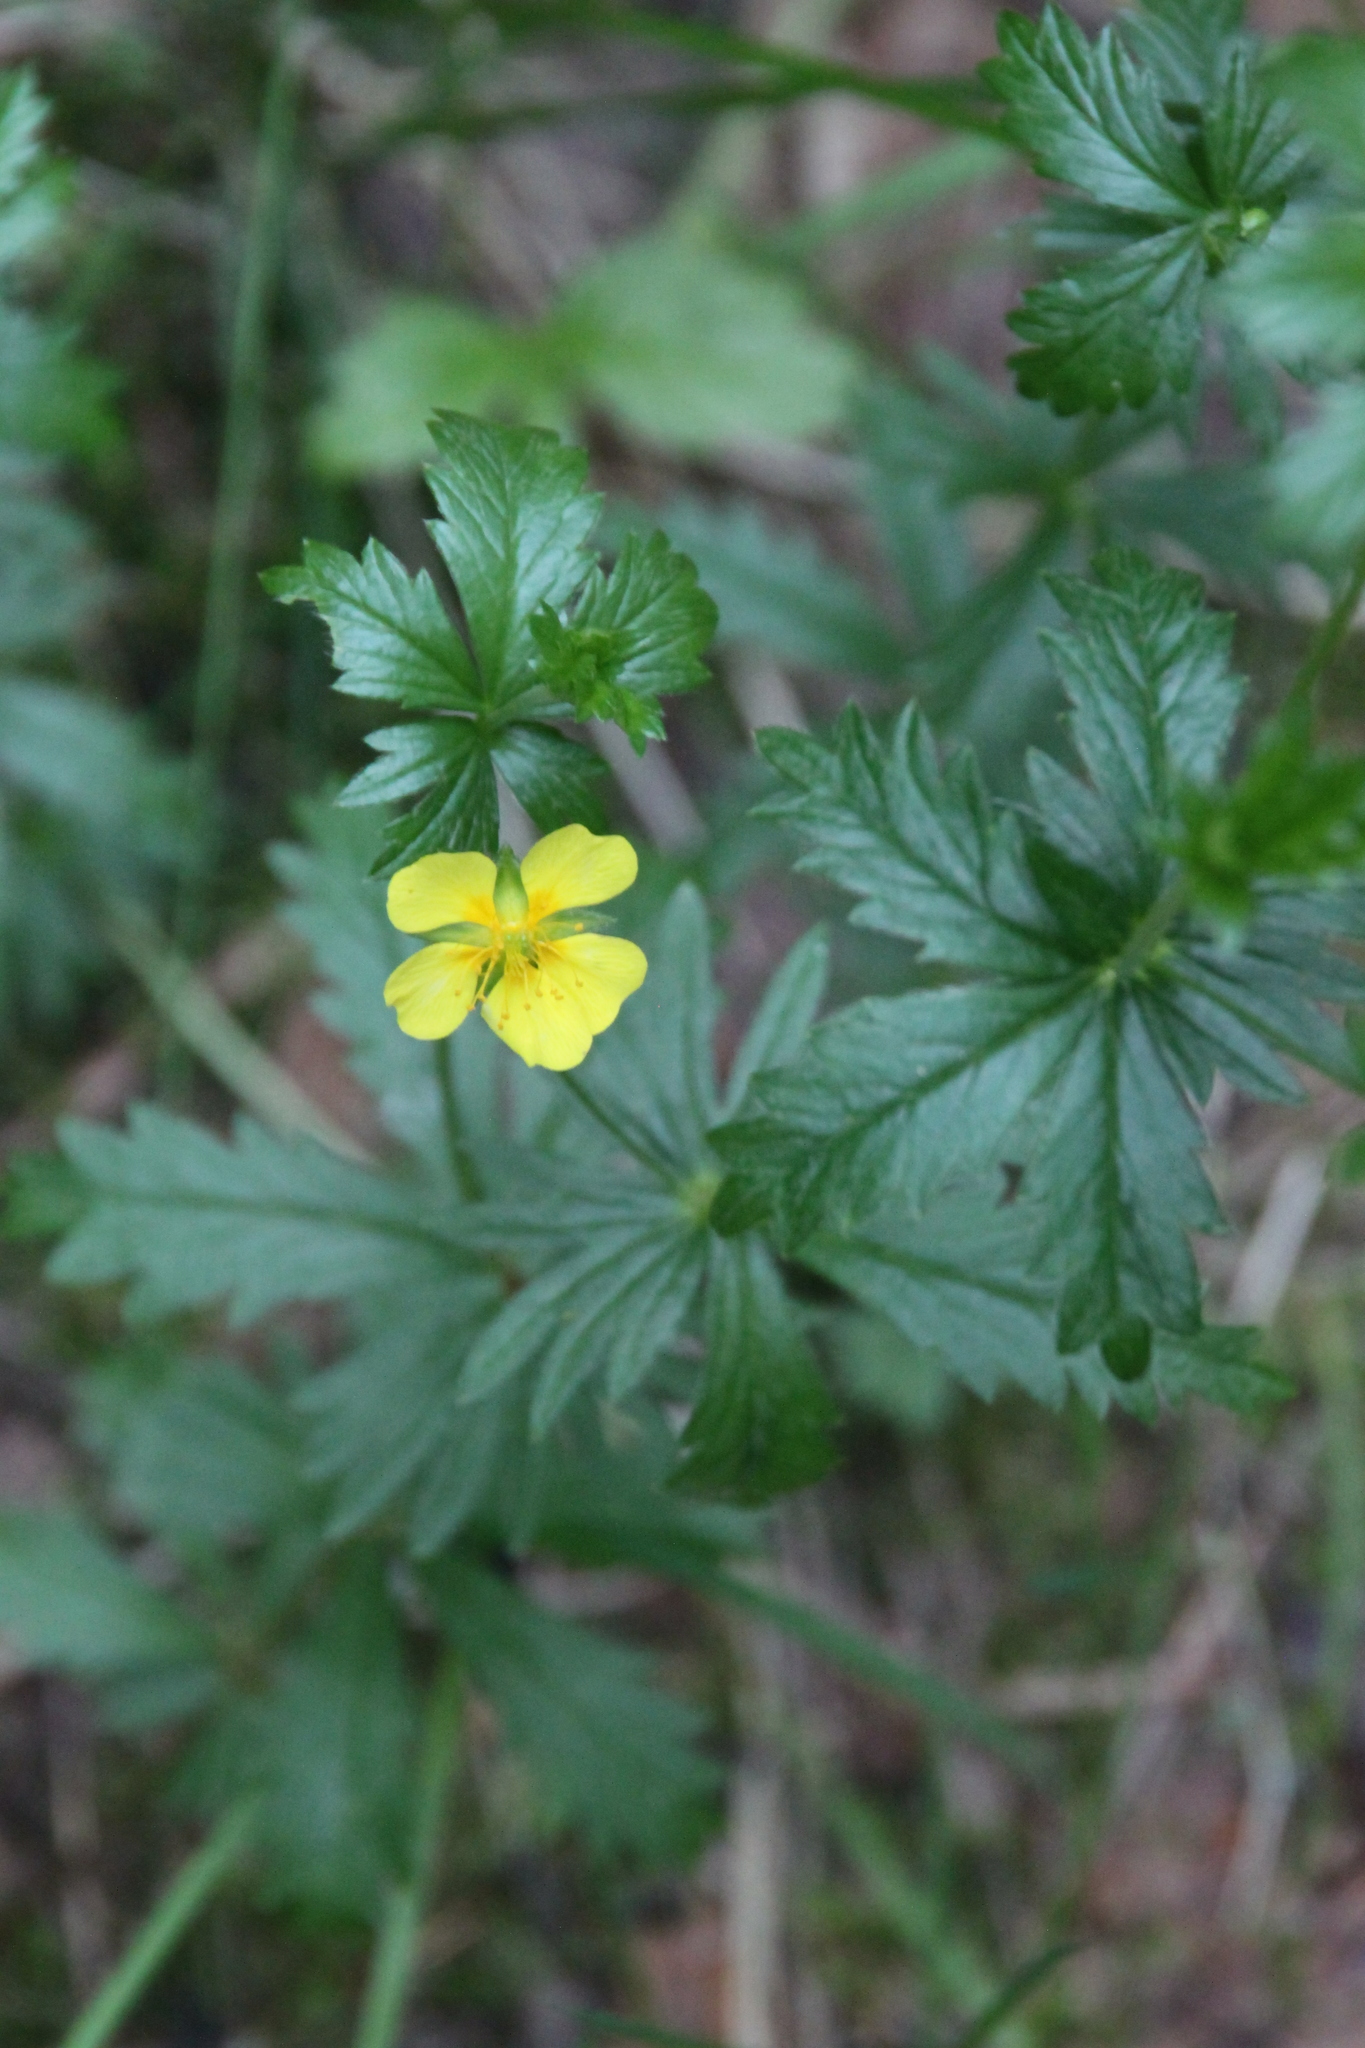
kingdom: Plantae
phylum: Tracheophyta
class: Magnoliopsida
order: Rosales
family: Rosaceae
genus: Potentilla
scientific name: Potentilla erecta
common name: Tormentil
